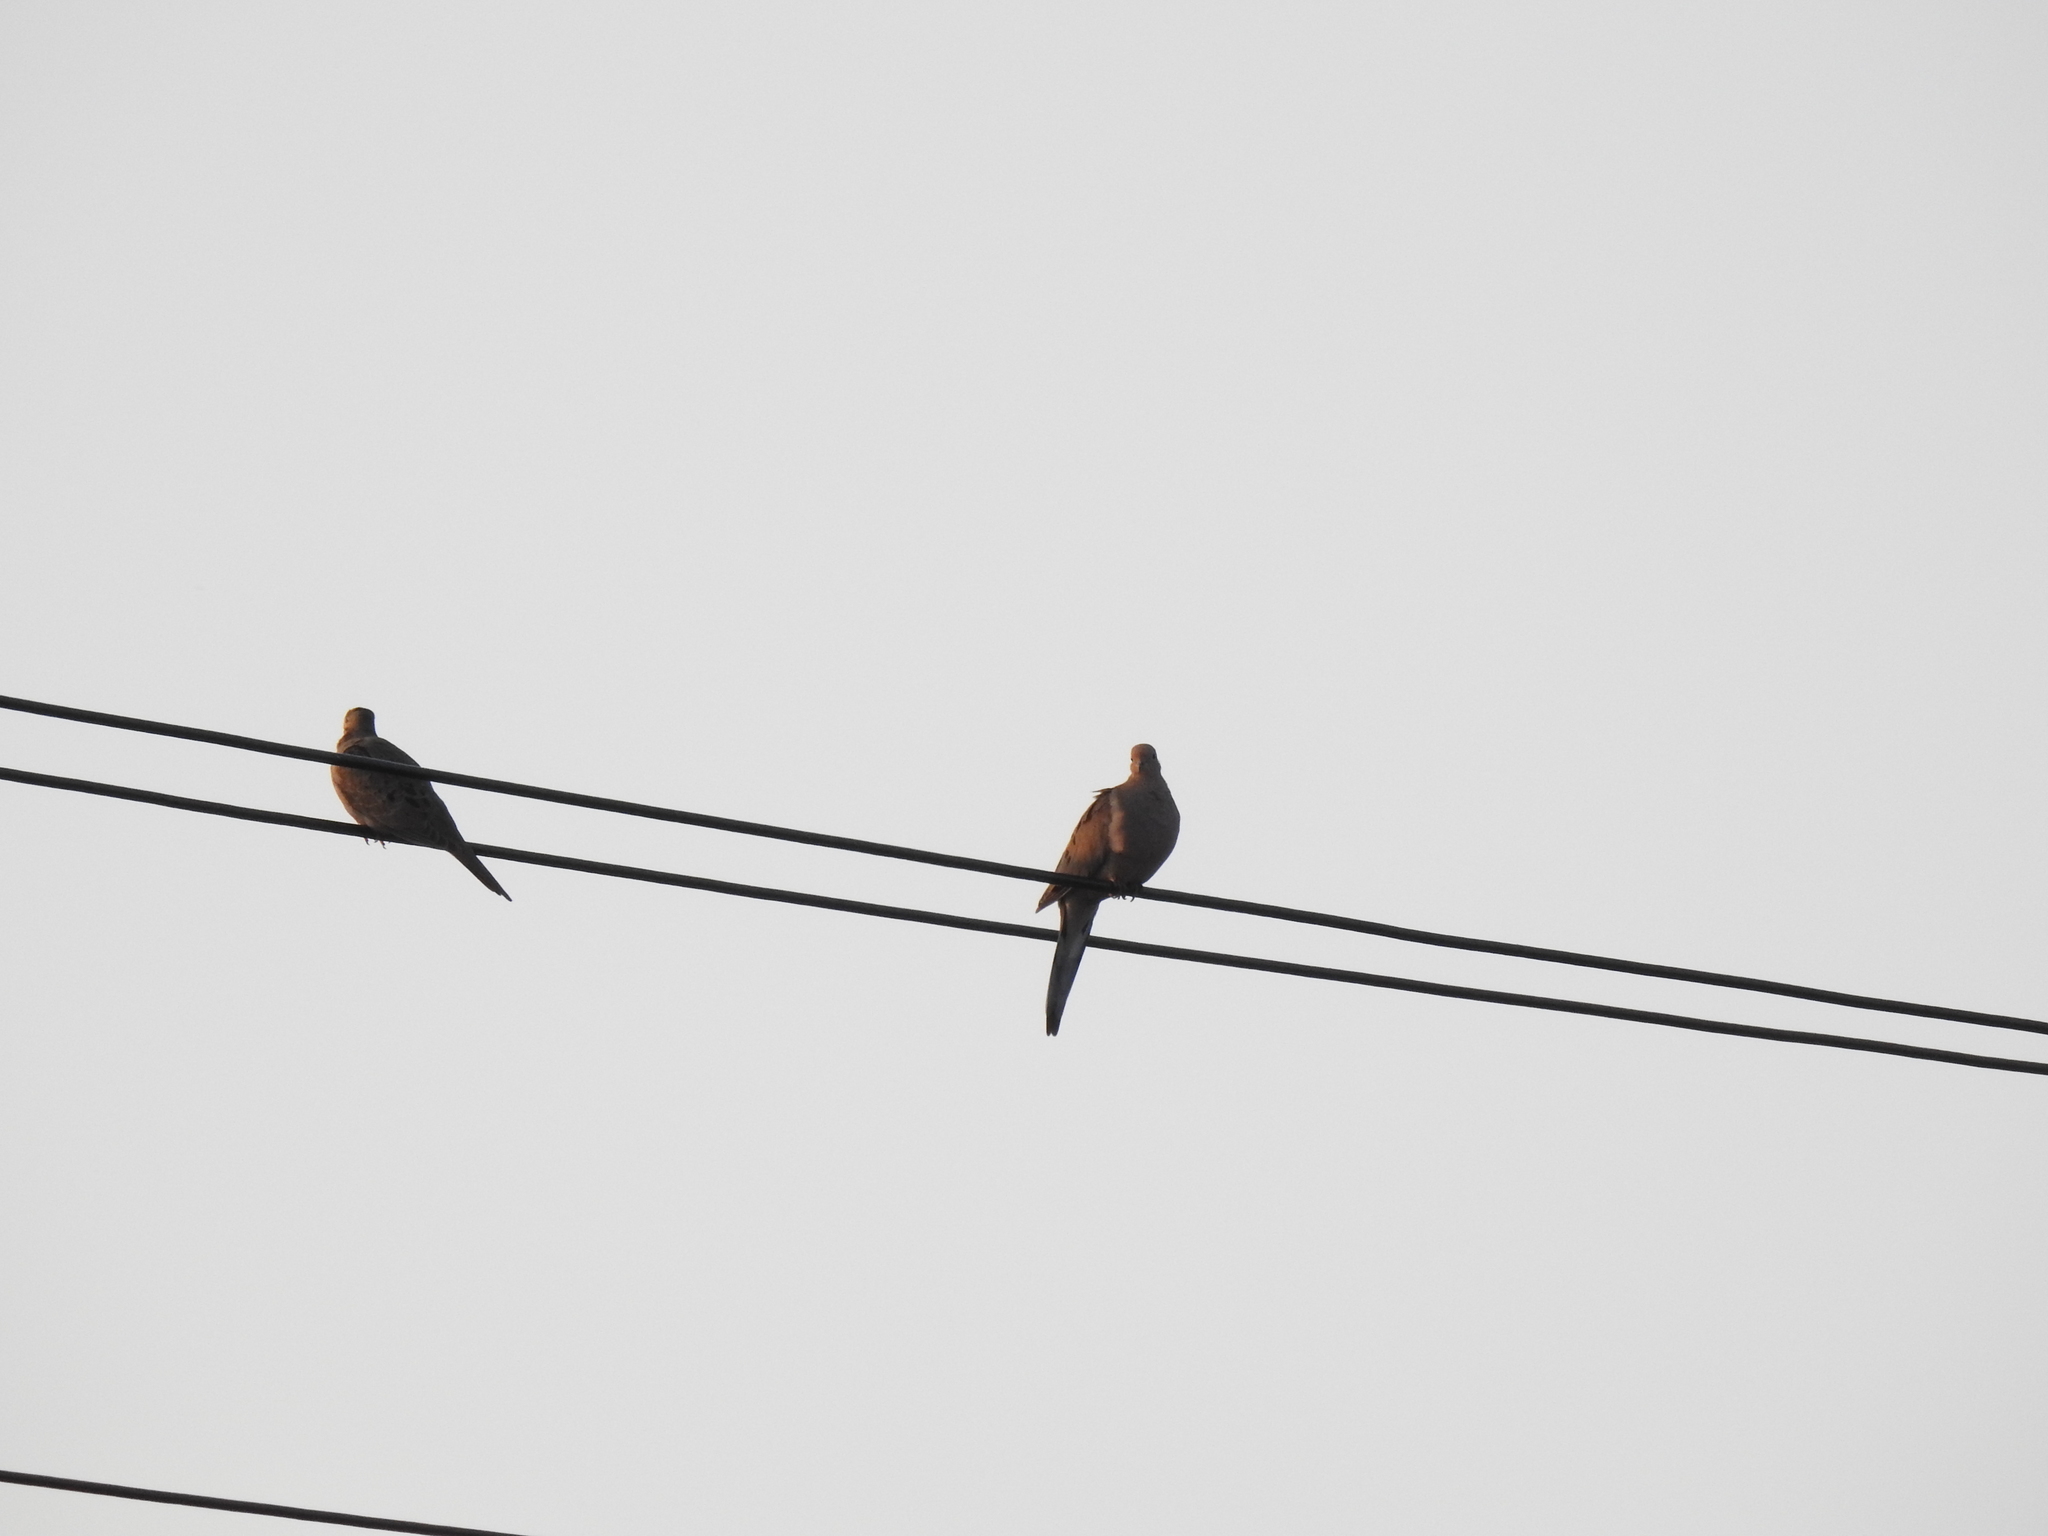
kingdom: Animalia
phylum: Chordata
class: Aves
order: Columbiformes
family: Columbidae
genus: Zenaida
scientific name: Zenaida macroura
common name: Mourning dove
